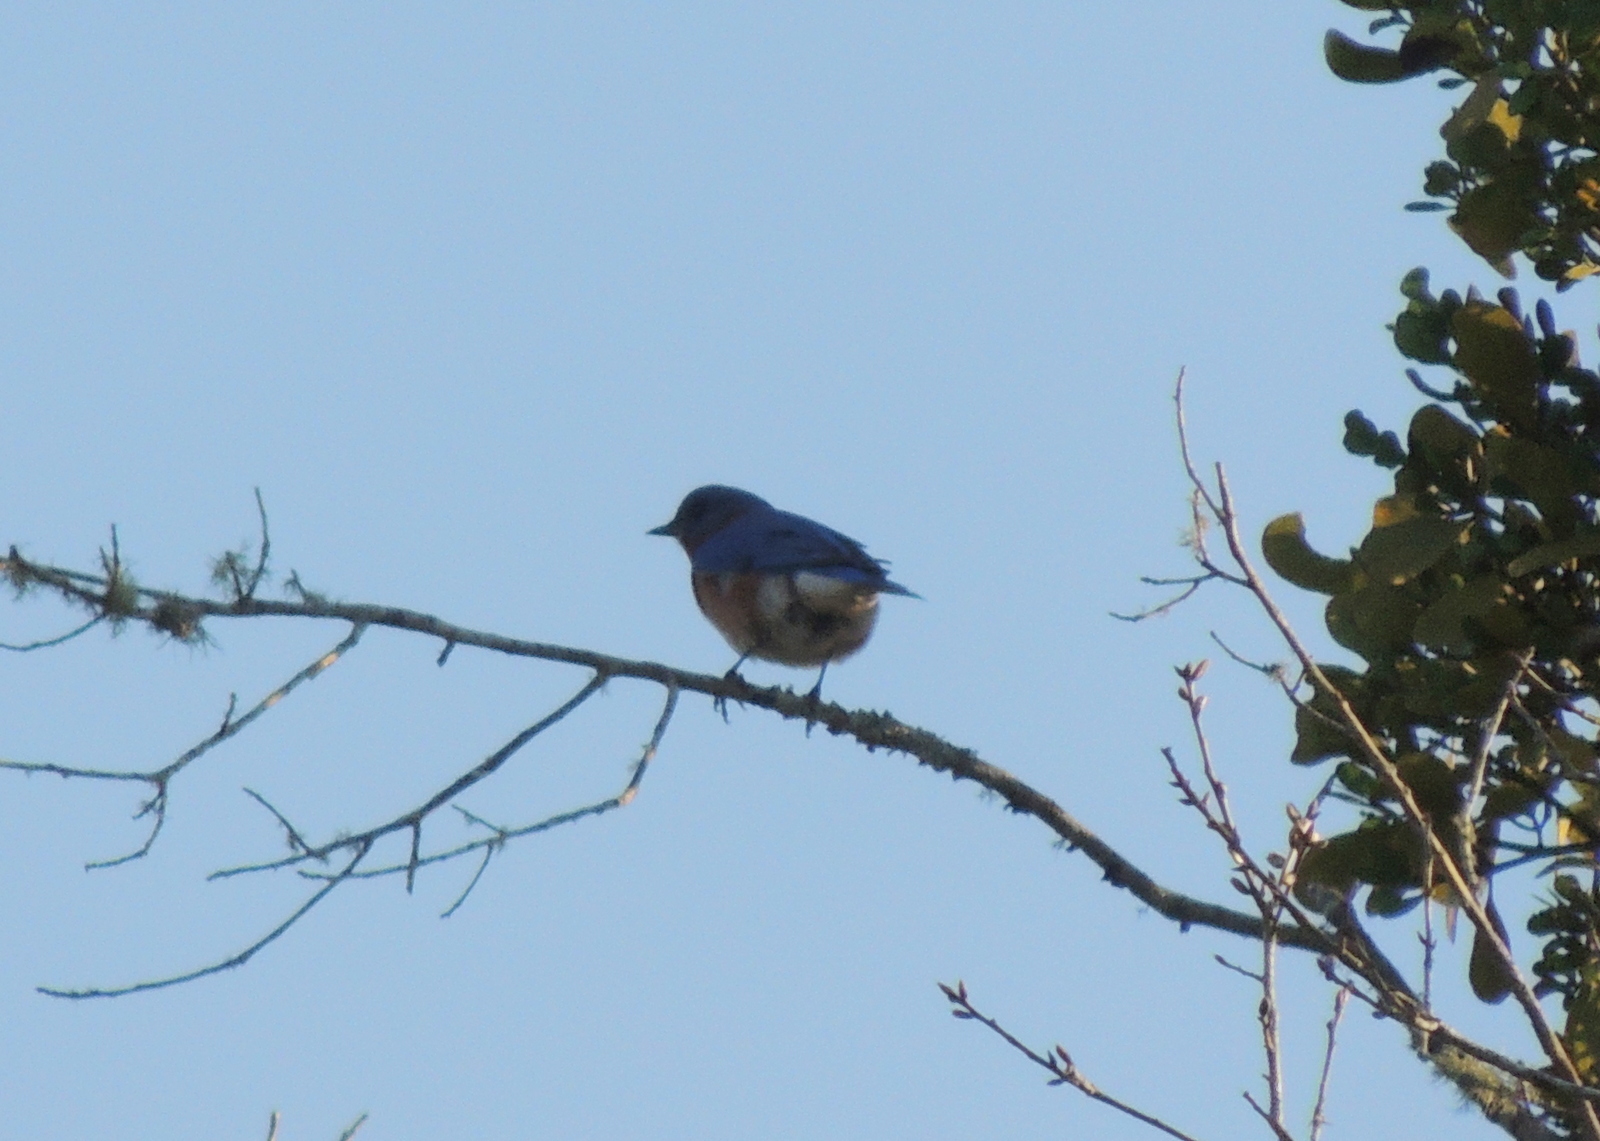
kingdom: Animalia
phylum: Chordata
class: Aves
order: Passeriformes
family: Turdidae
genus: Sialia
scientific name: Sialia sialis
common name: Eastern bluebird
